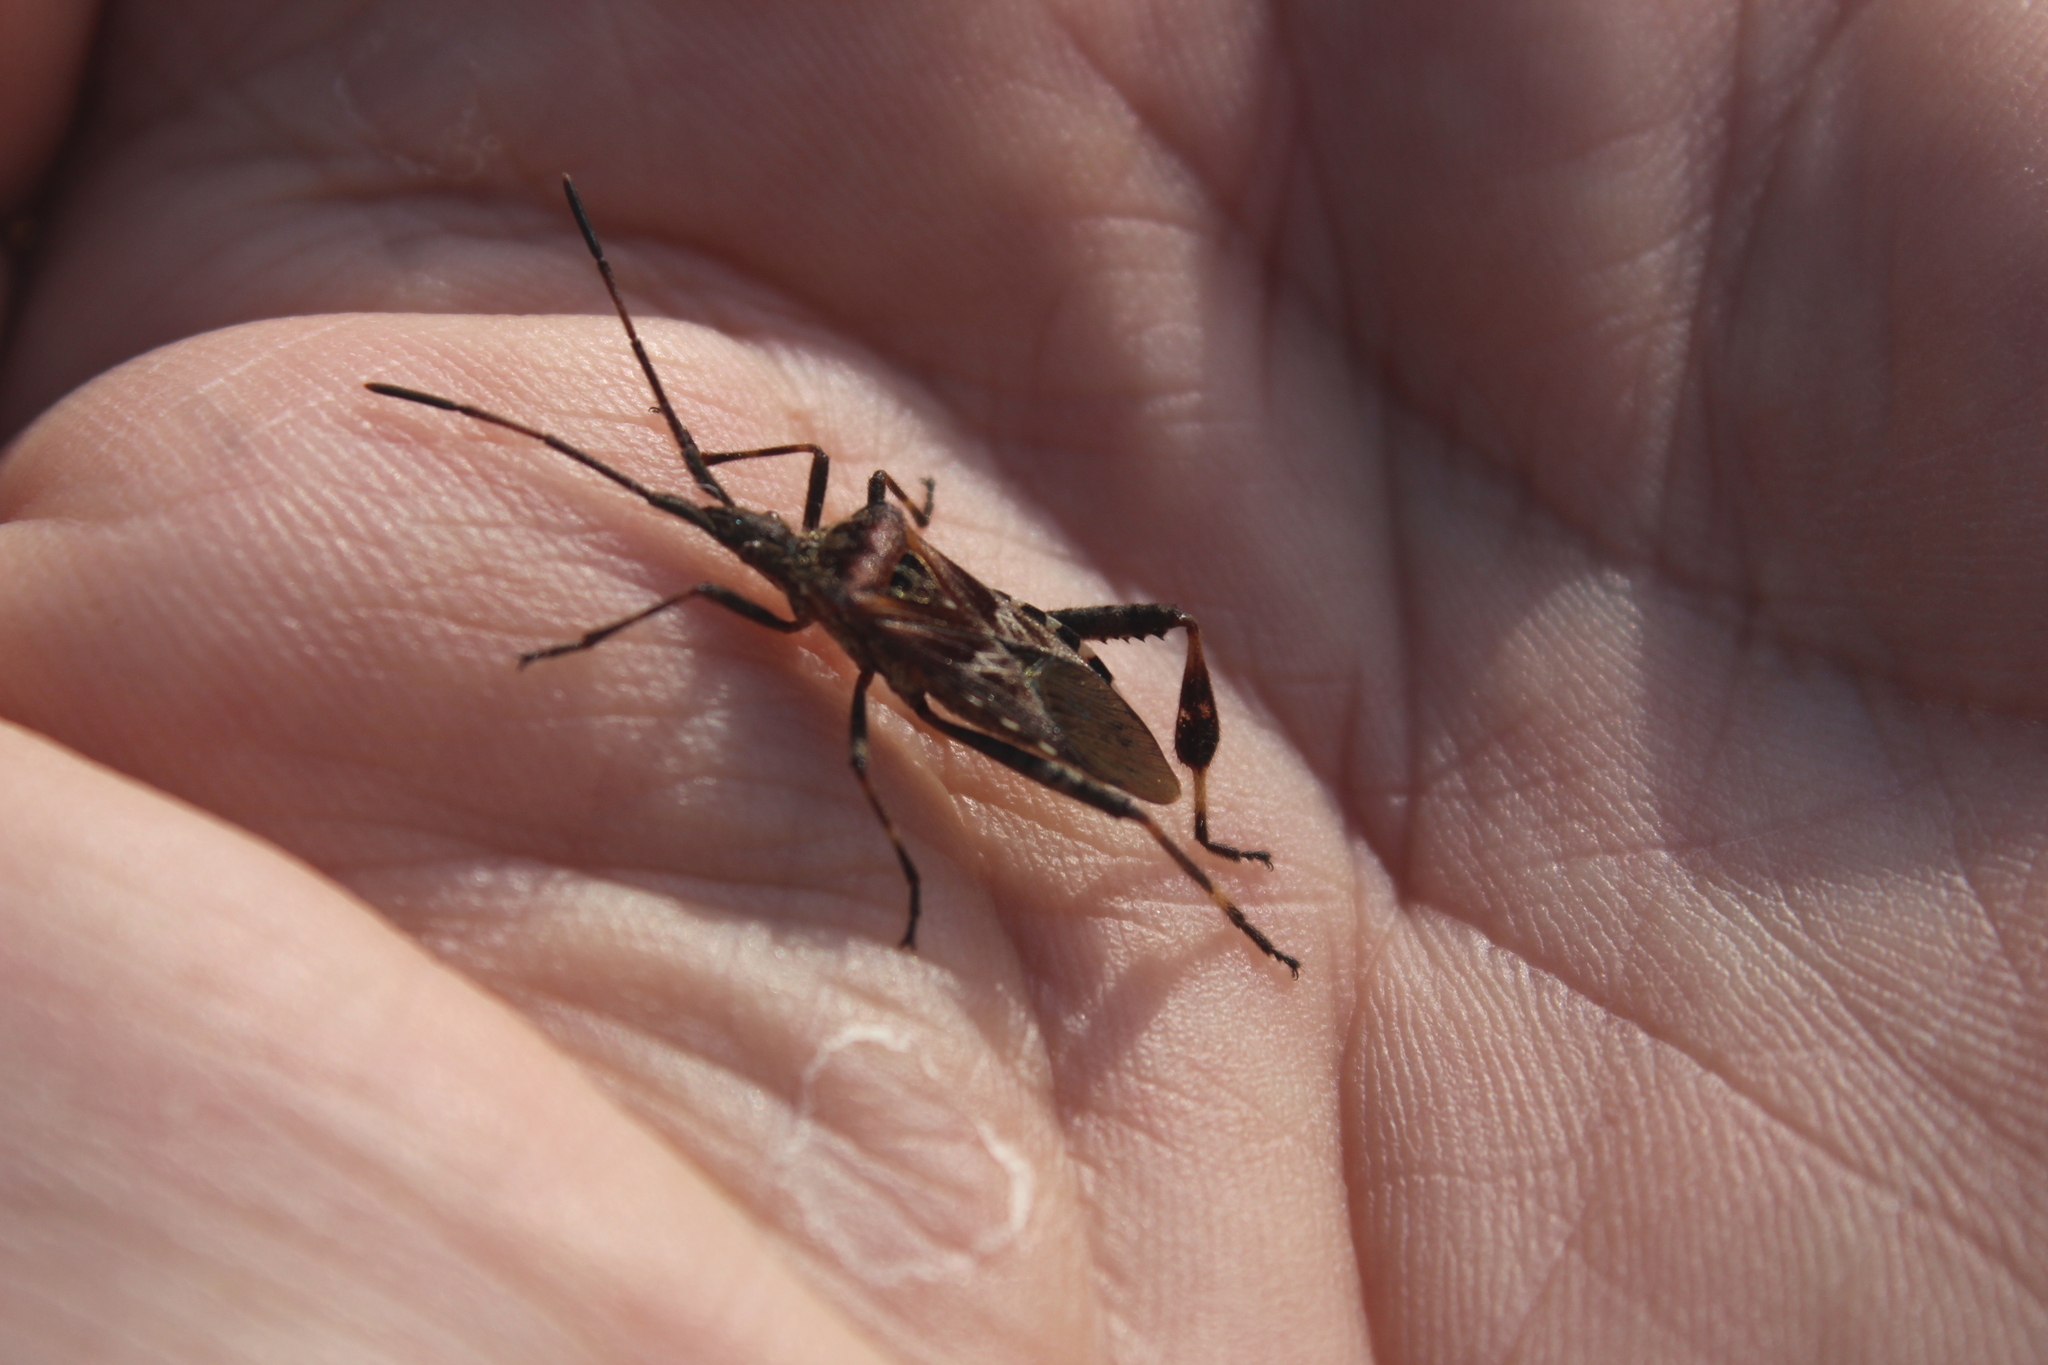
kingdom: Animalia
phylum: Arthropoda
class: Insecta
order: Hemiptera
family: Coreidae
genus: Leptoglossus
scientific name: Leptoglossus occidentalis
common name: Western conifer-seed bug
